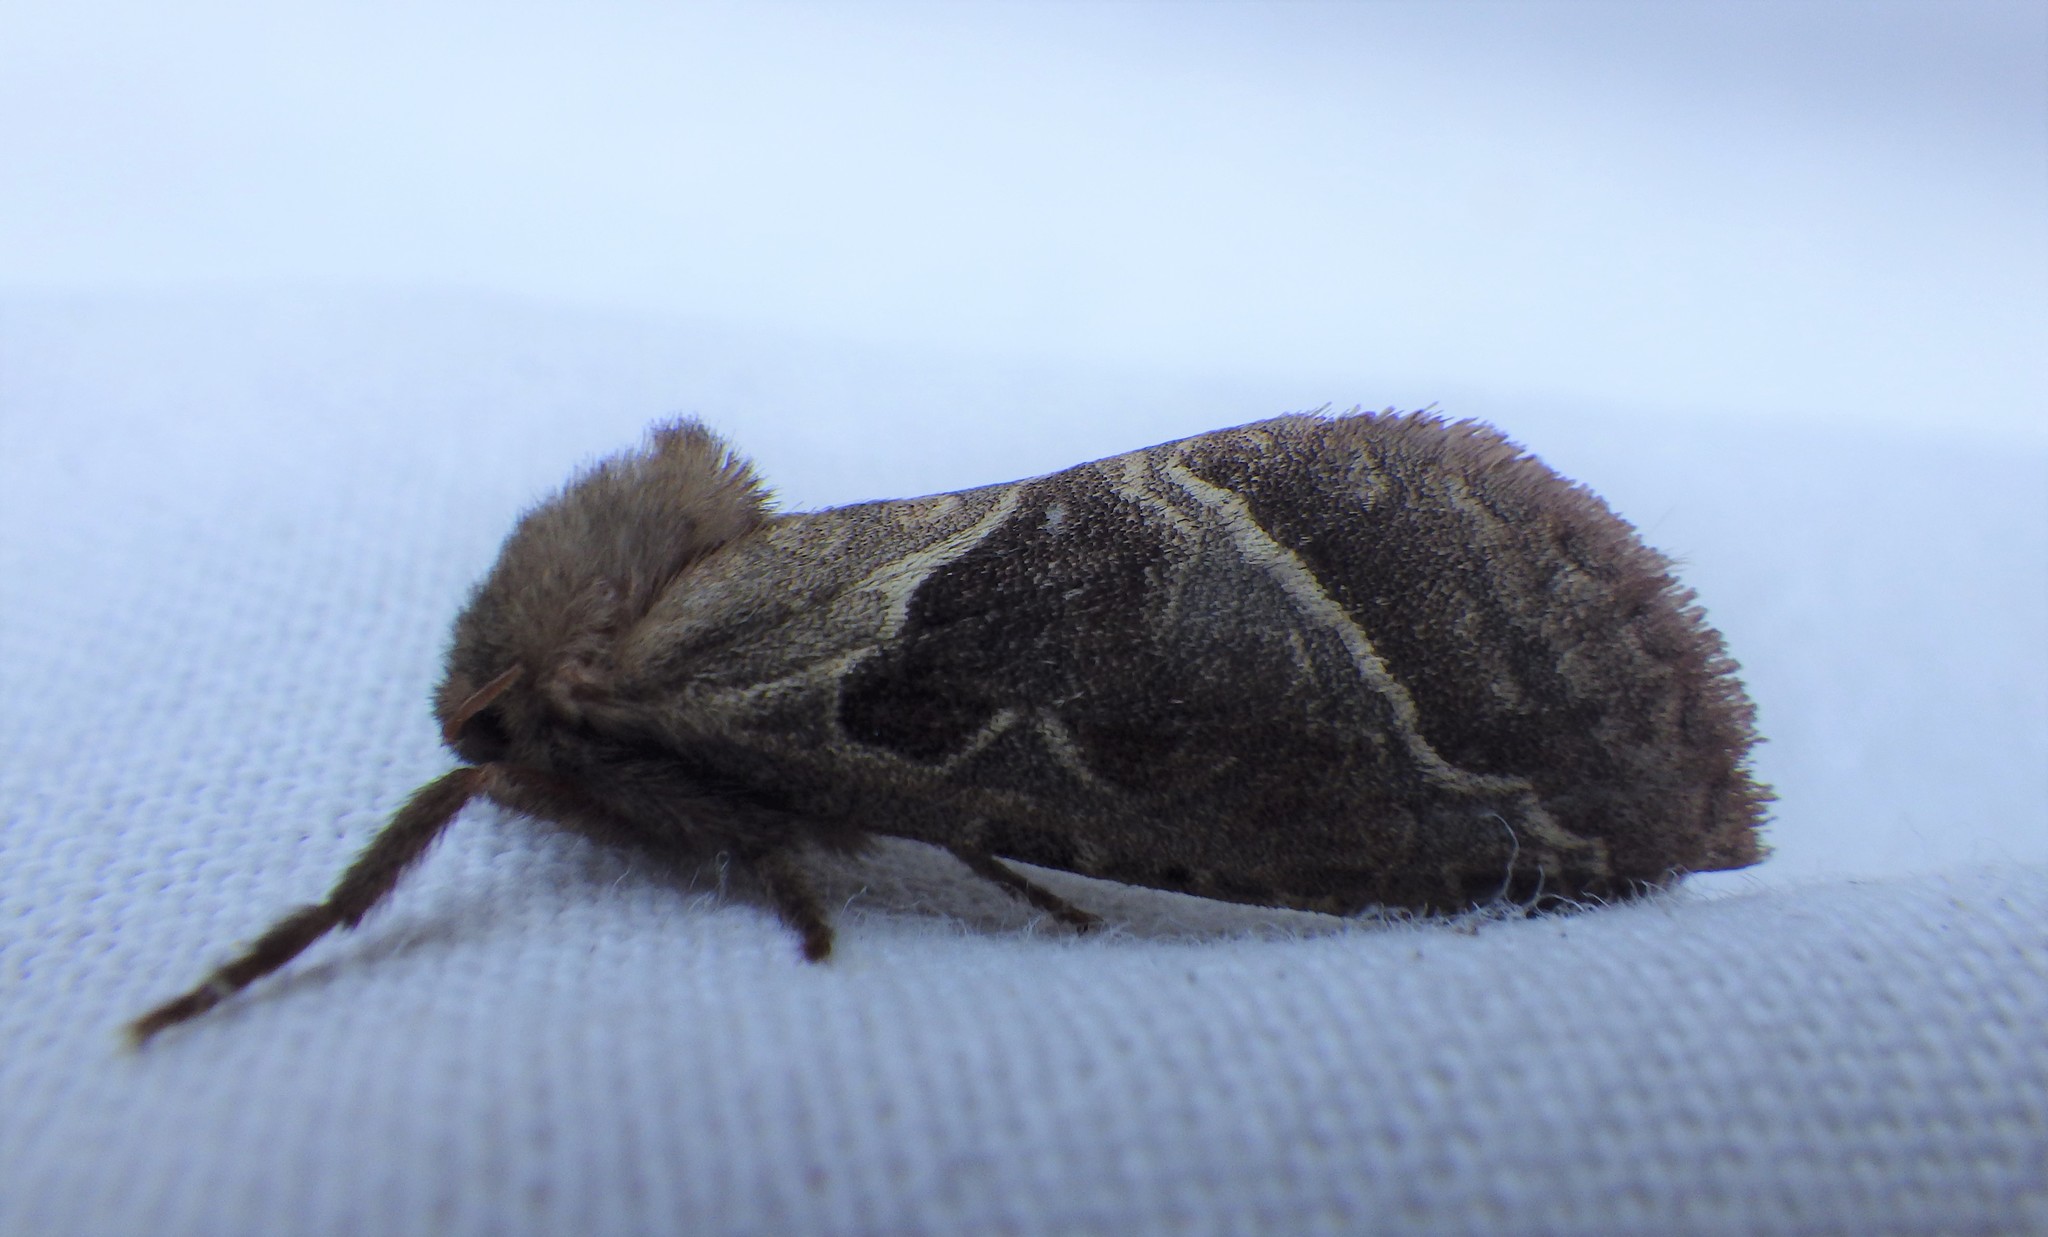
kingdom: Animalia
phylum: Arthropoda
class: Insecta
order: Lepidoptera
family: Hepialidae
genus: Triodia
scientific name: Triodia sylvina
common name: Orange swift
